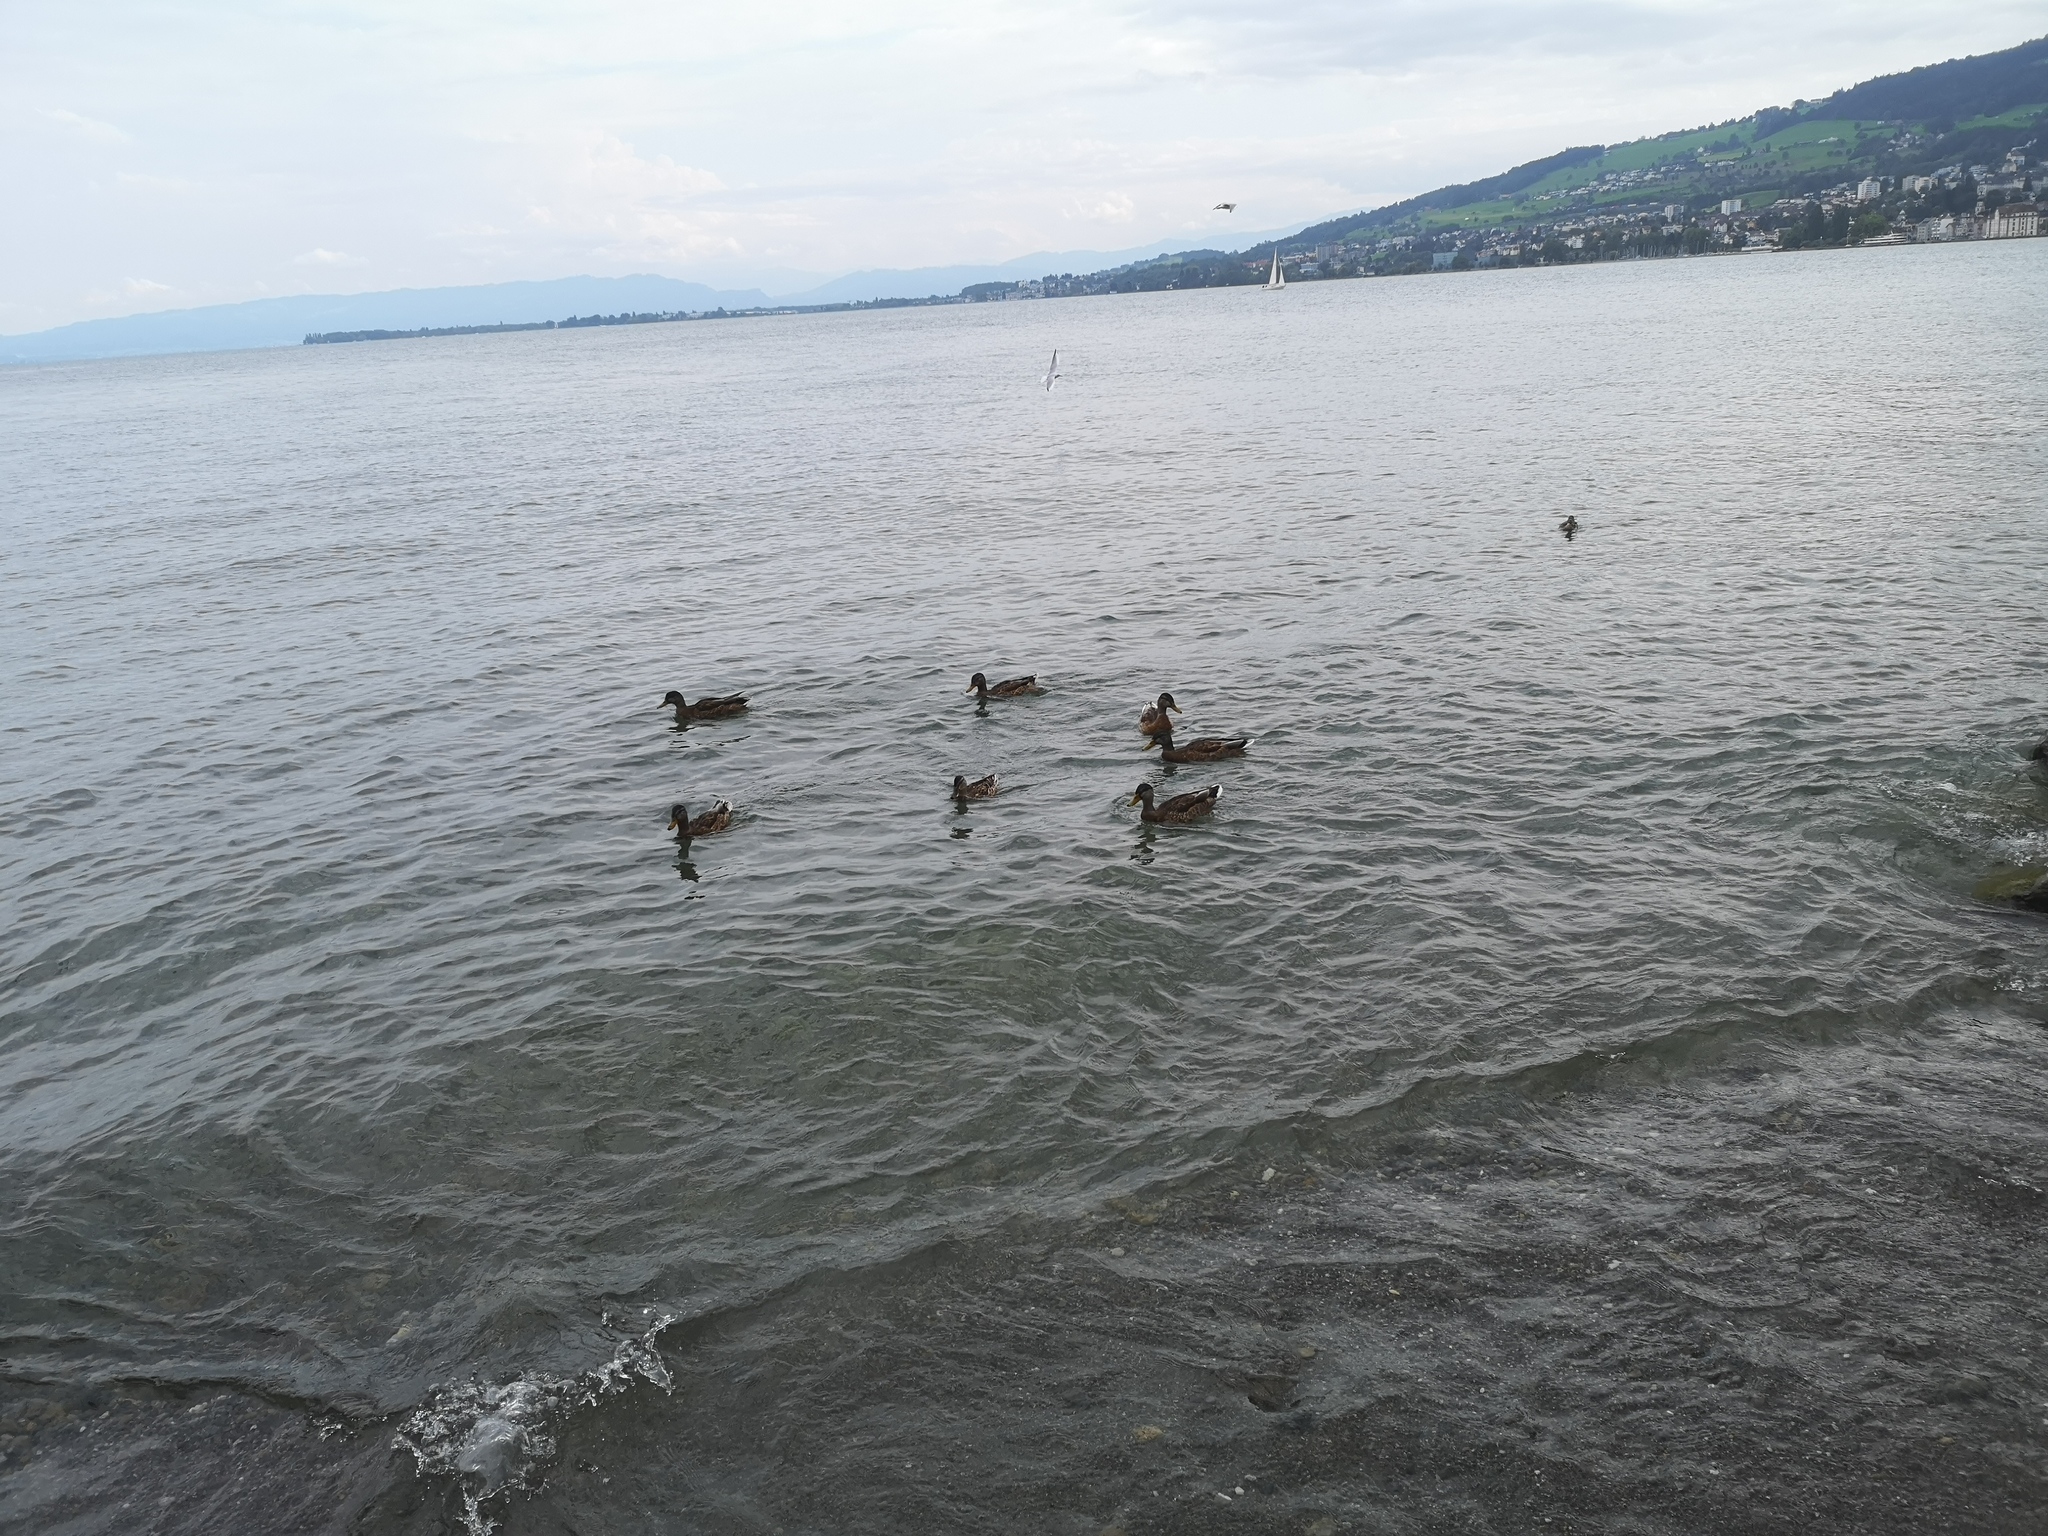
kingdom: Animalia
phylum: Chordata
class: Aves
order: Anseriformes
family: Anatidae
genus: Anas
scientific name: Anas platyrhynchos
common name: Mallard
